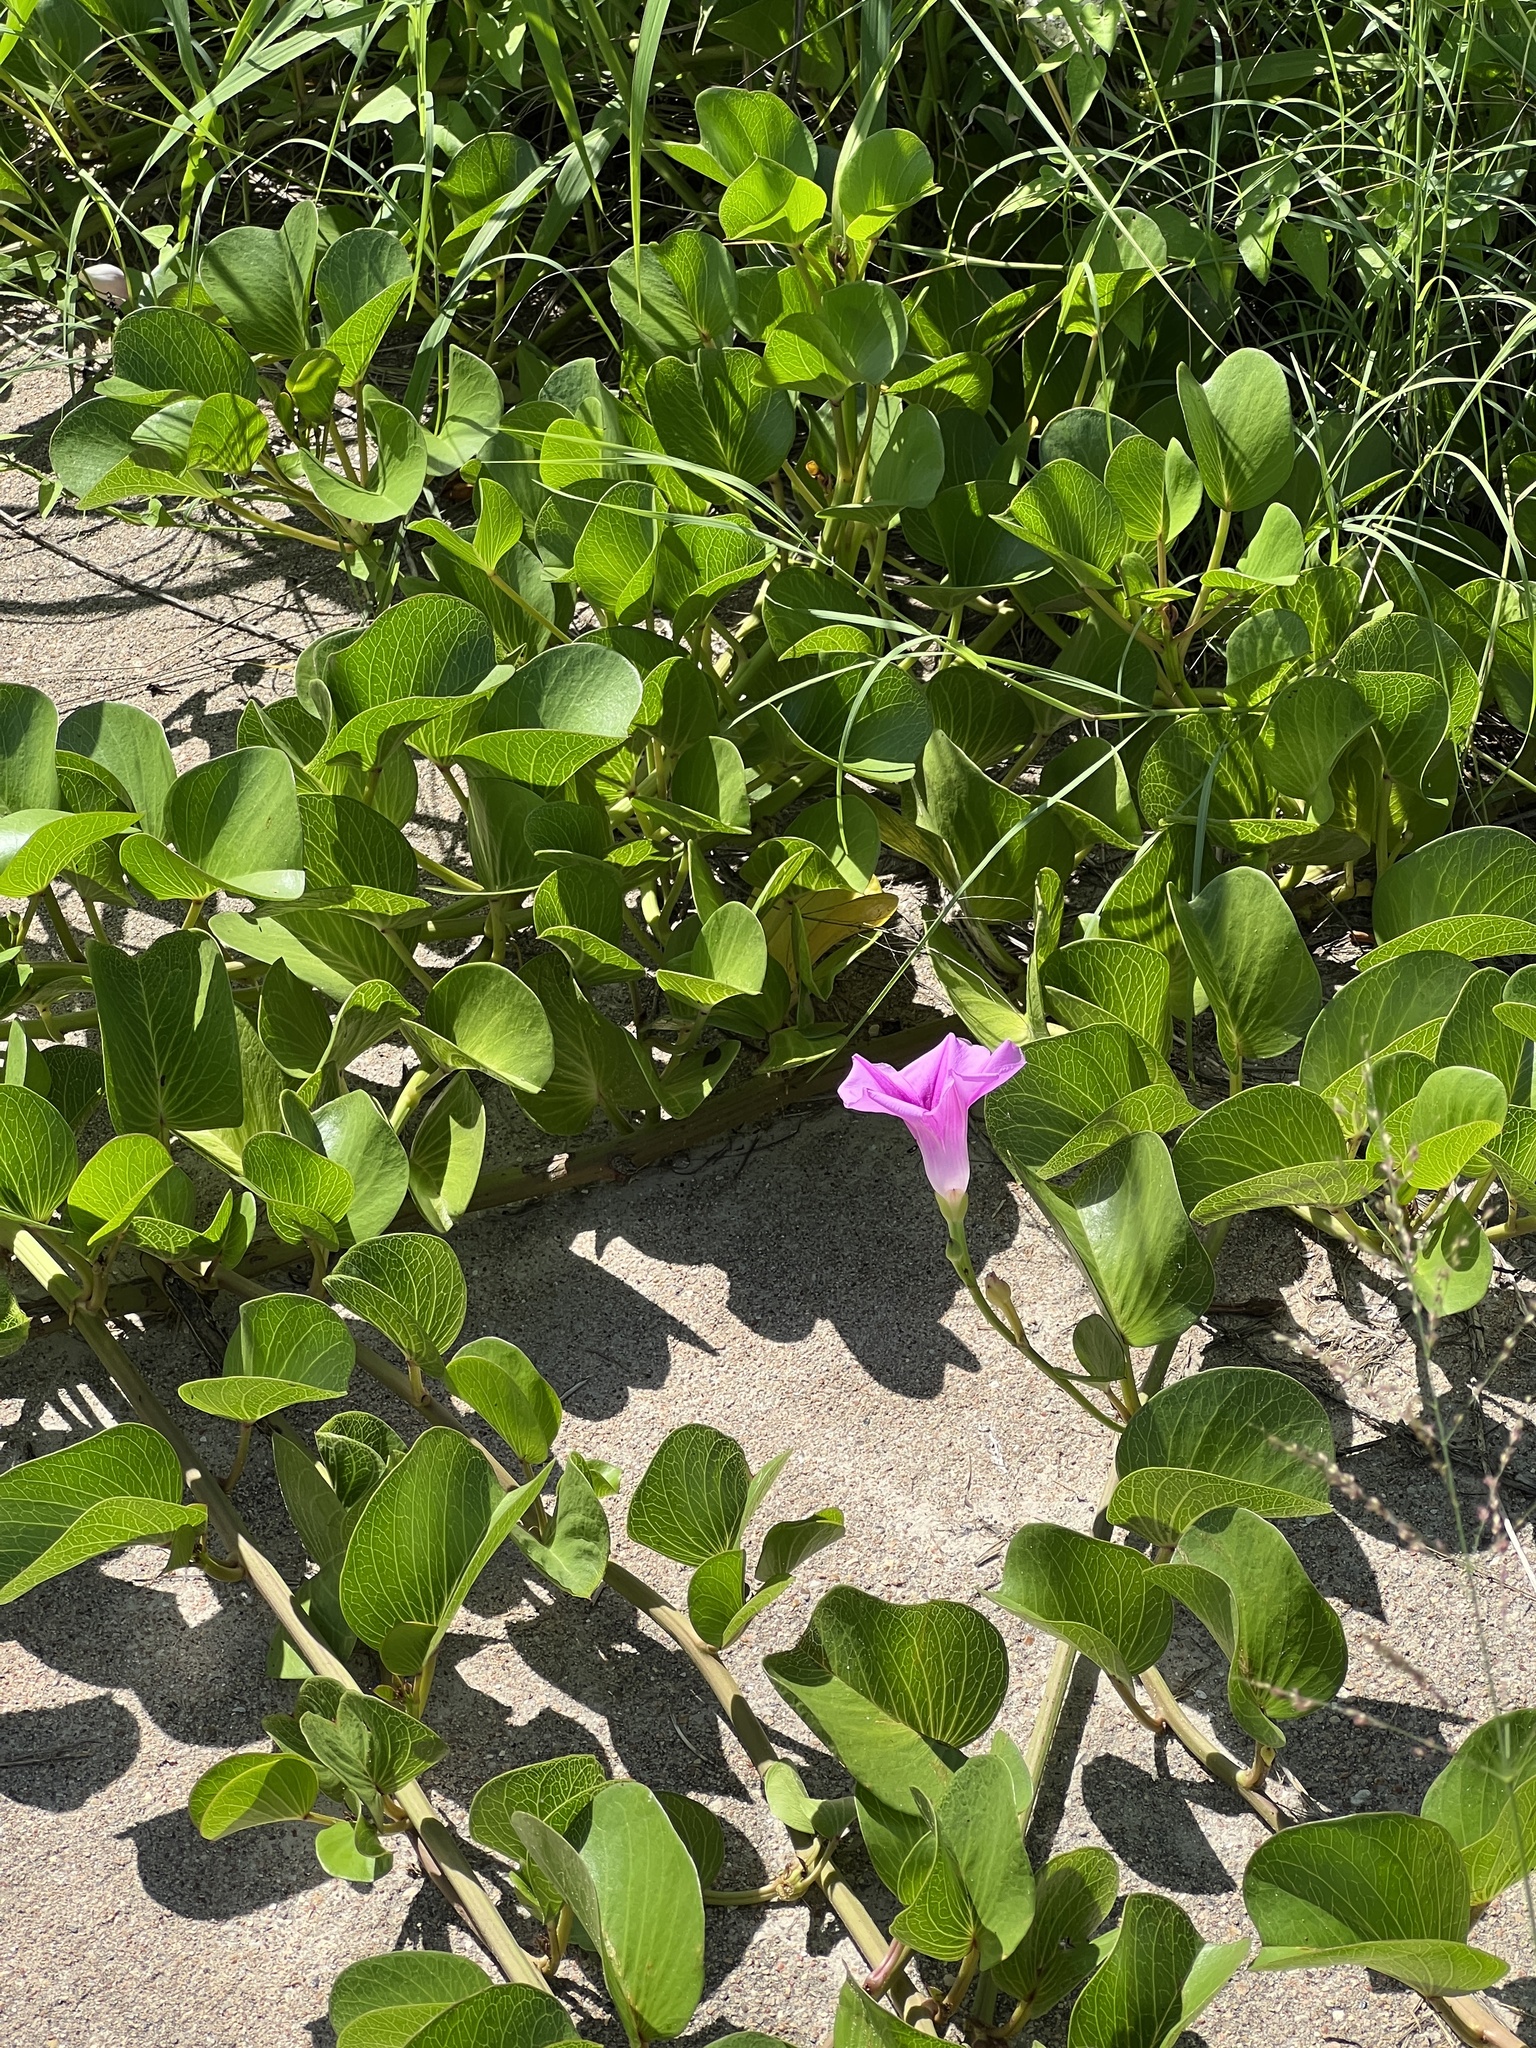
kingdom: Plantae
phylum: Tracheophyta
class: Magnoliopsida
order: Solanales
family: Convolvulaceae
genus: Ipomoea
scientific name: Ipomoea pes-caprae
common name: Beach morning glory
